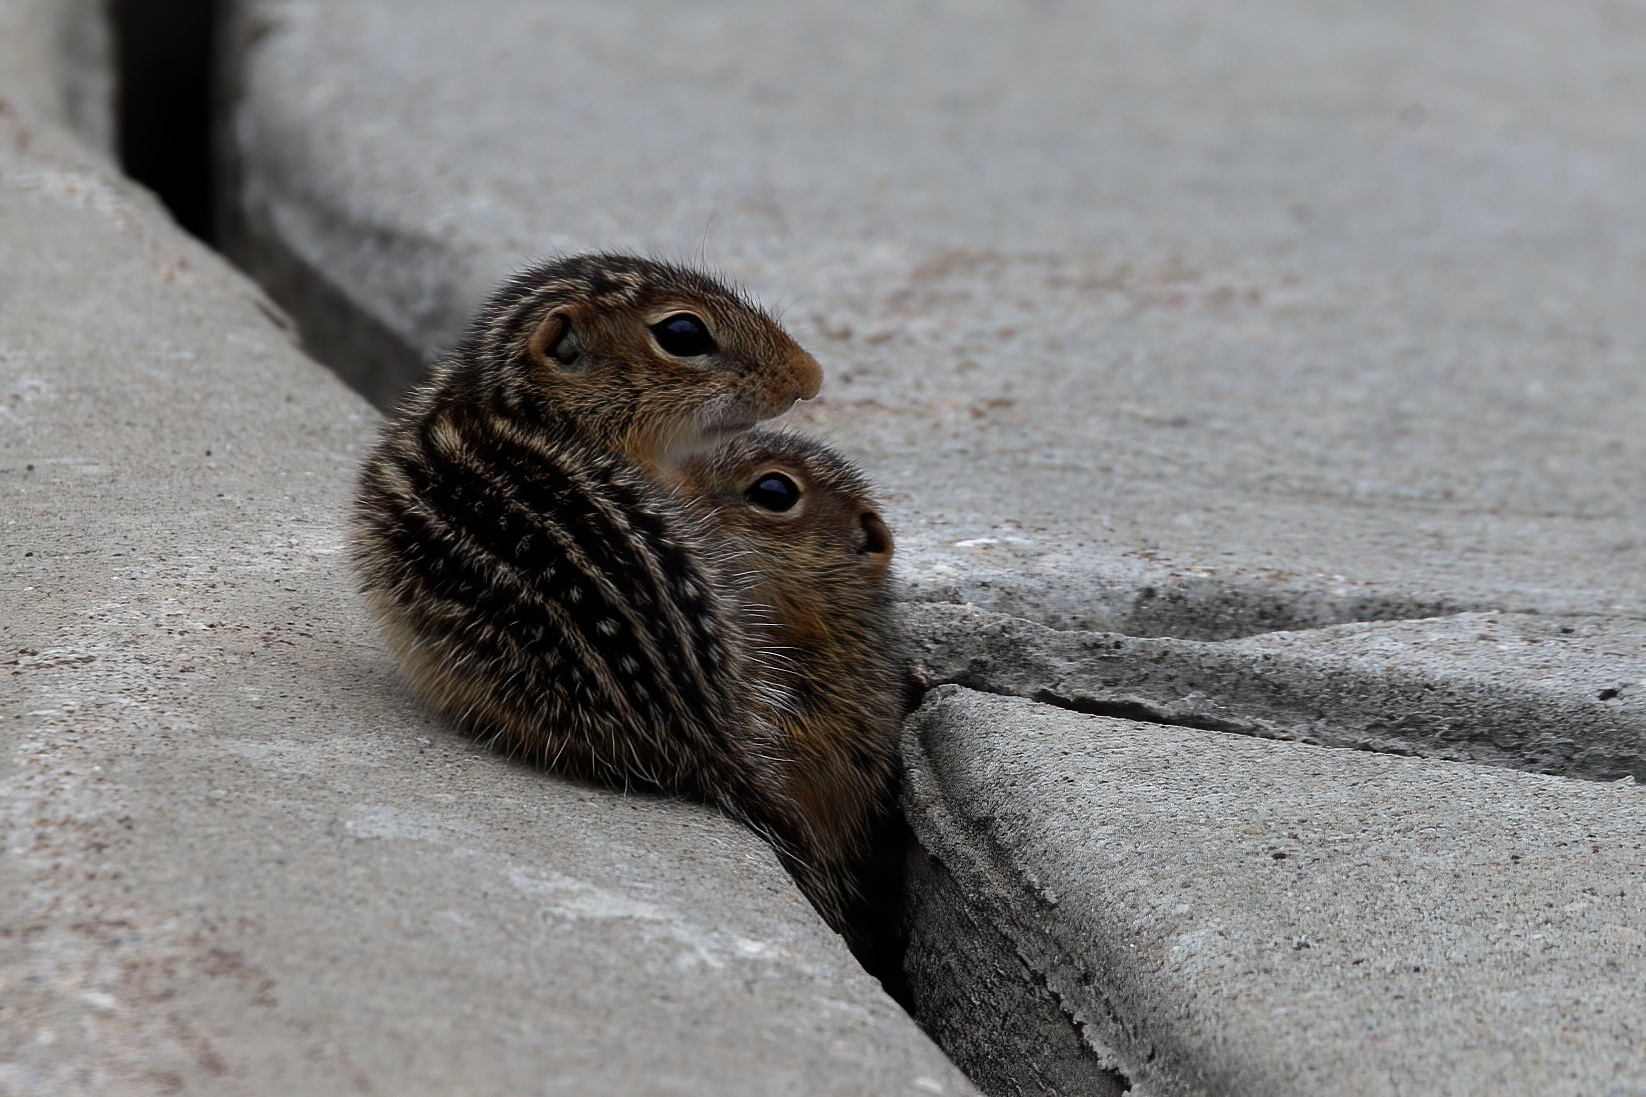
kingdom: Animalia
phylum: Chordata
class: Mammalia
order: Rodentia
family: Sciuridae
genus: Ictidomys
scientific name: Ictidomys tridecemlineatus
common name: Thirteen-lined ground squirrel
